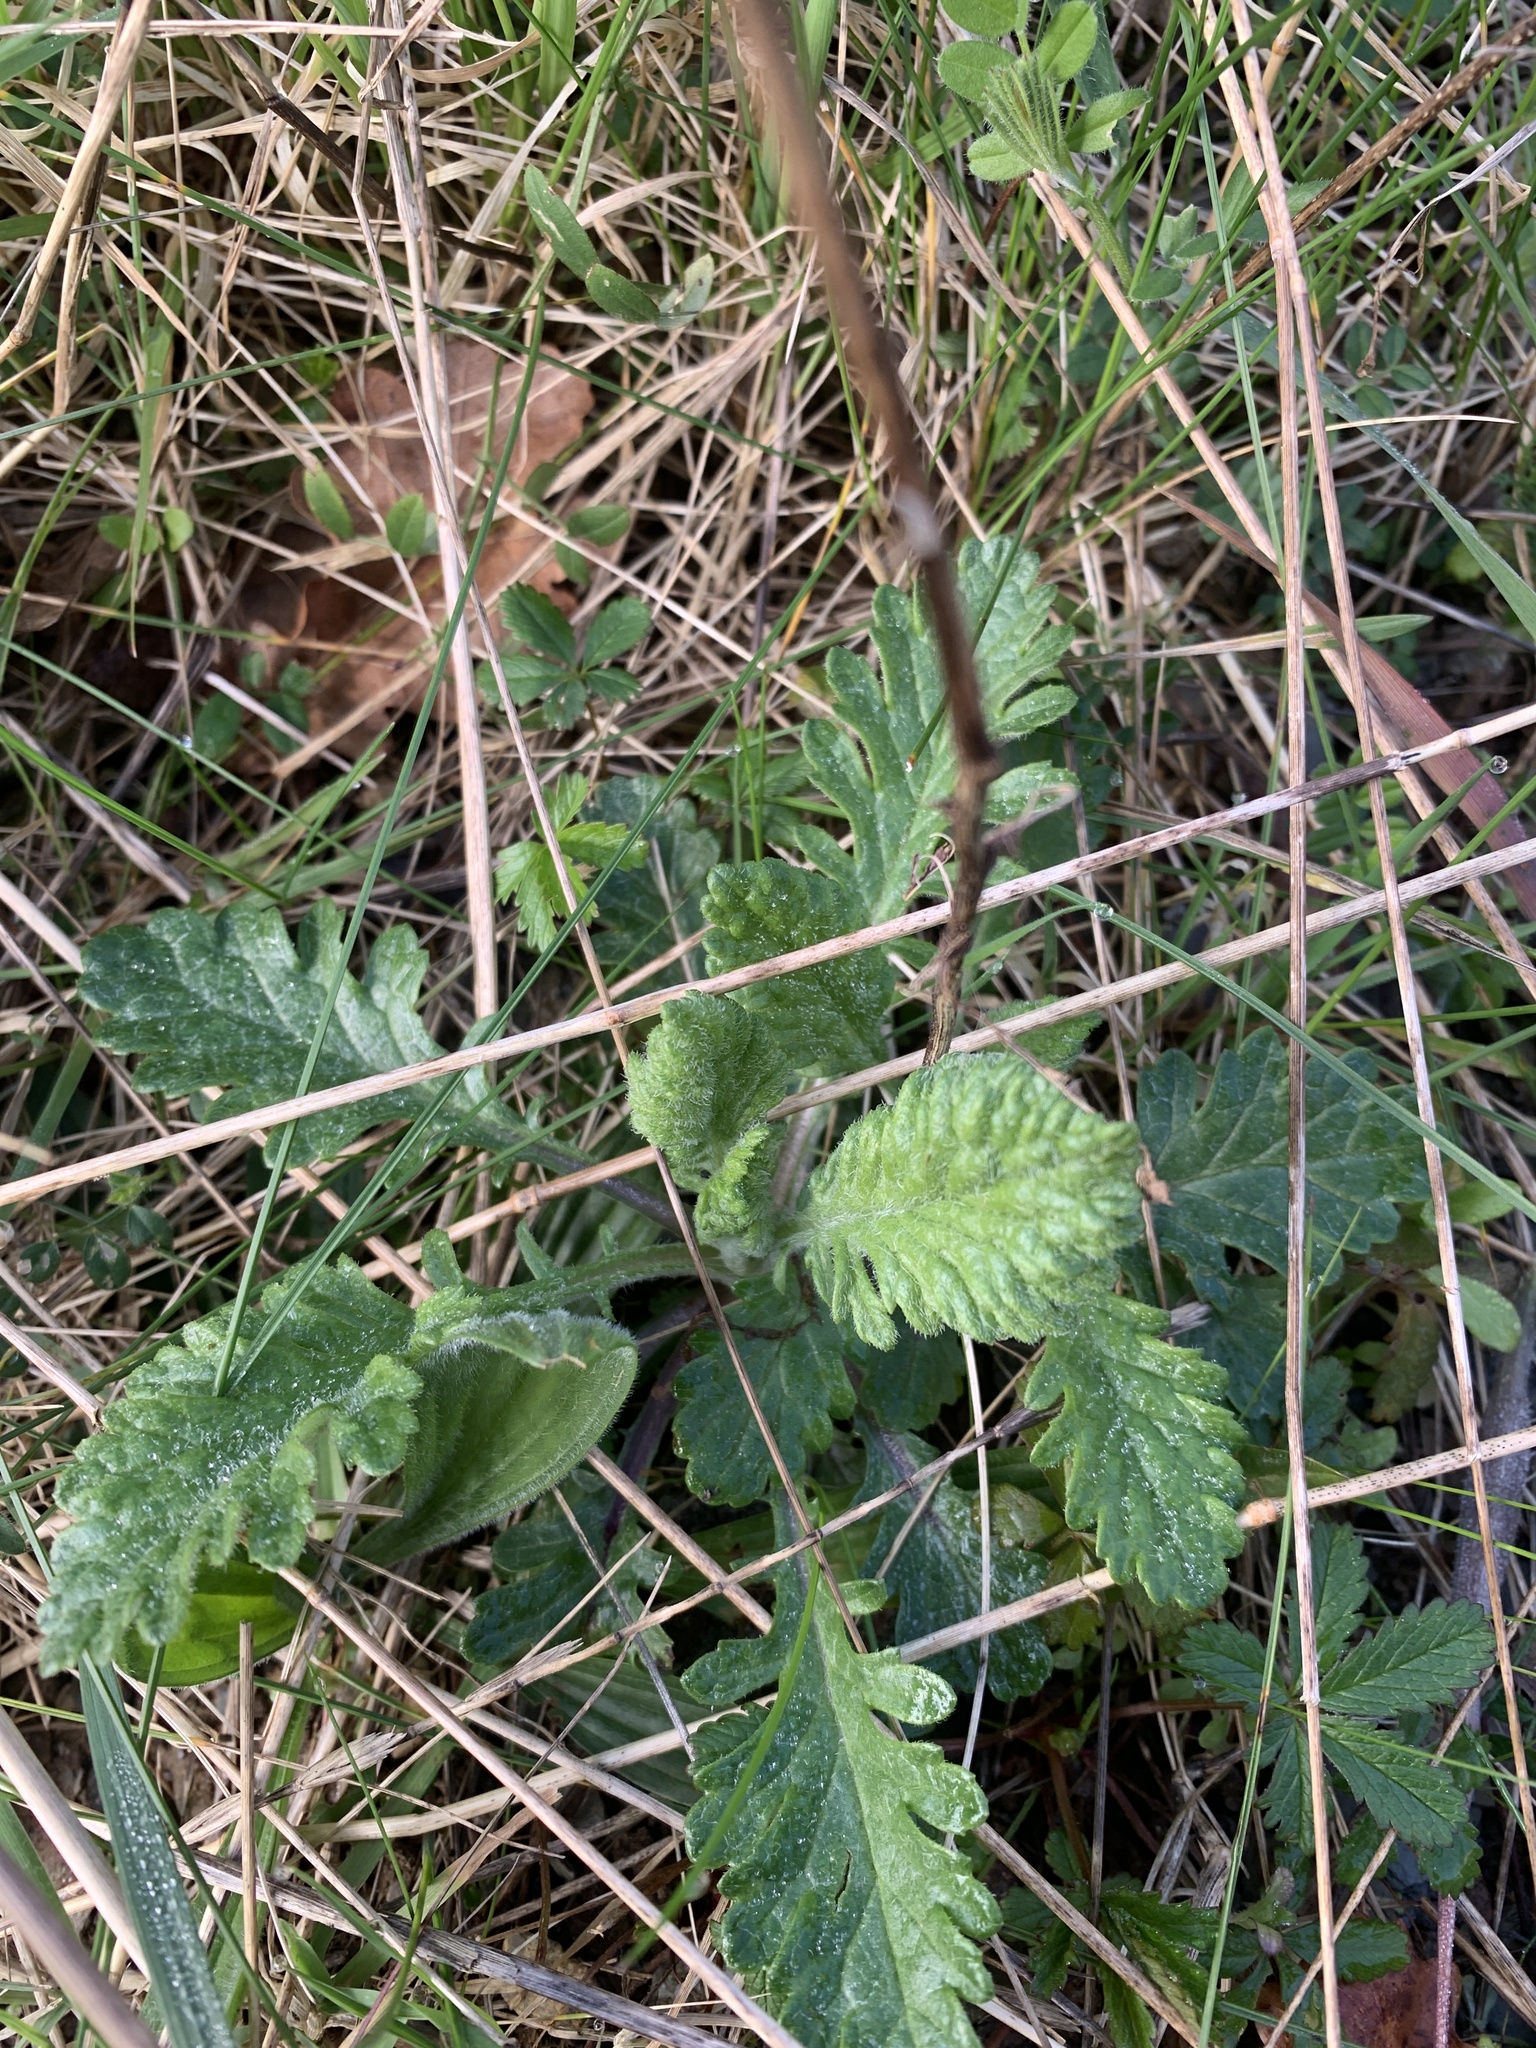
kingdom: Plantae
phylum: Tracheophyta
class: Magnoliopsida
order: Asterales
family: Asteraceae
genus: Jacobaea
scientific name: Jacobaea vulgaris
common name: Stinking willie
